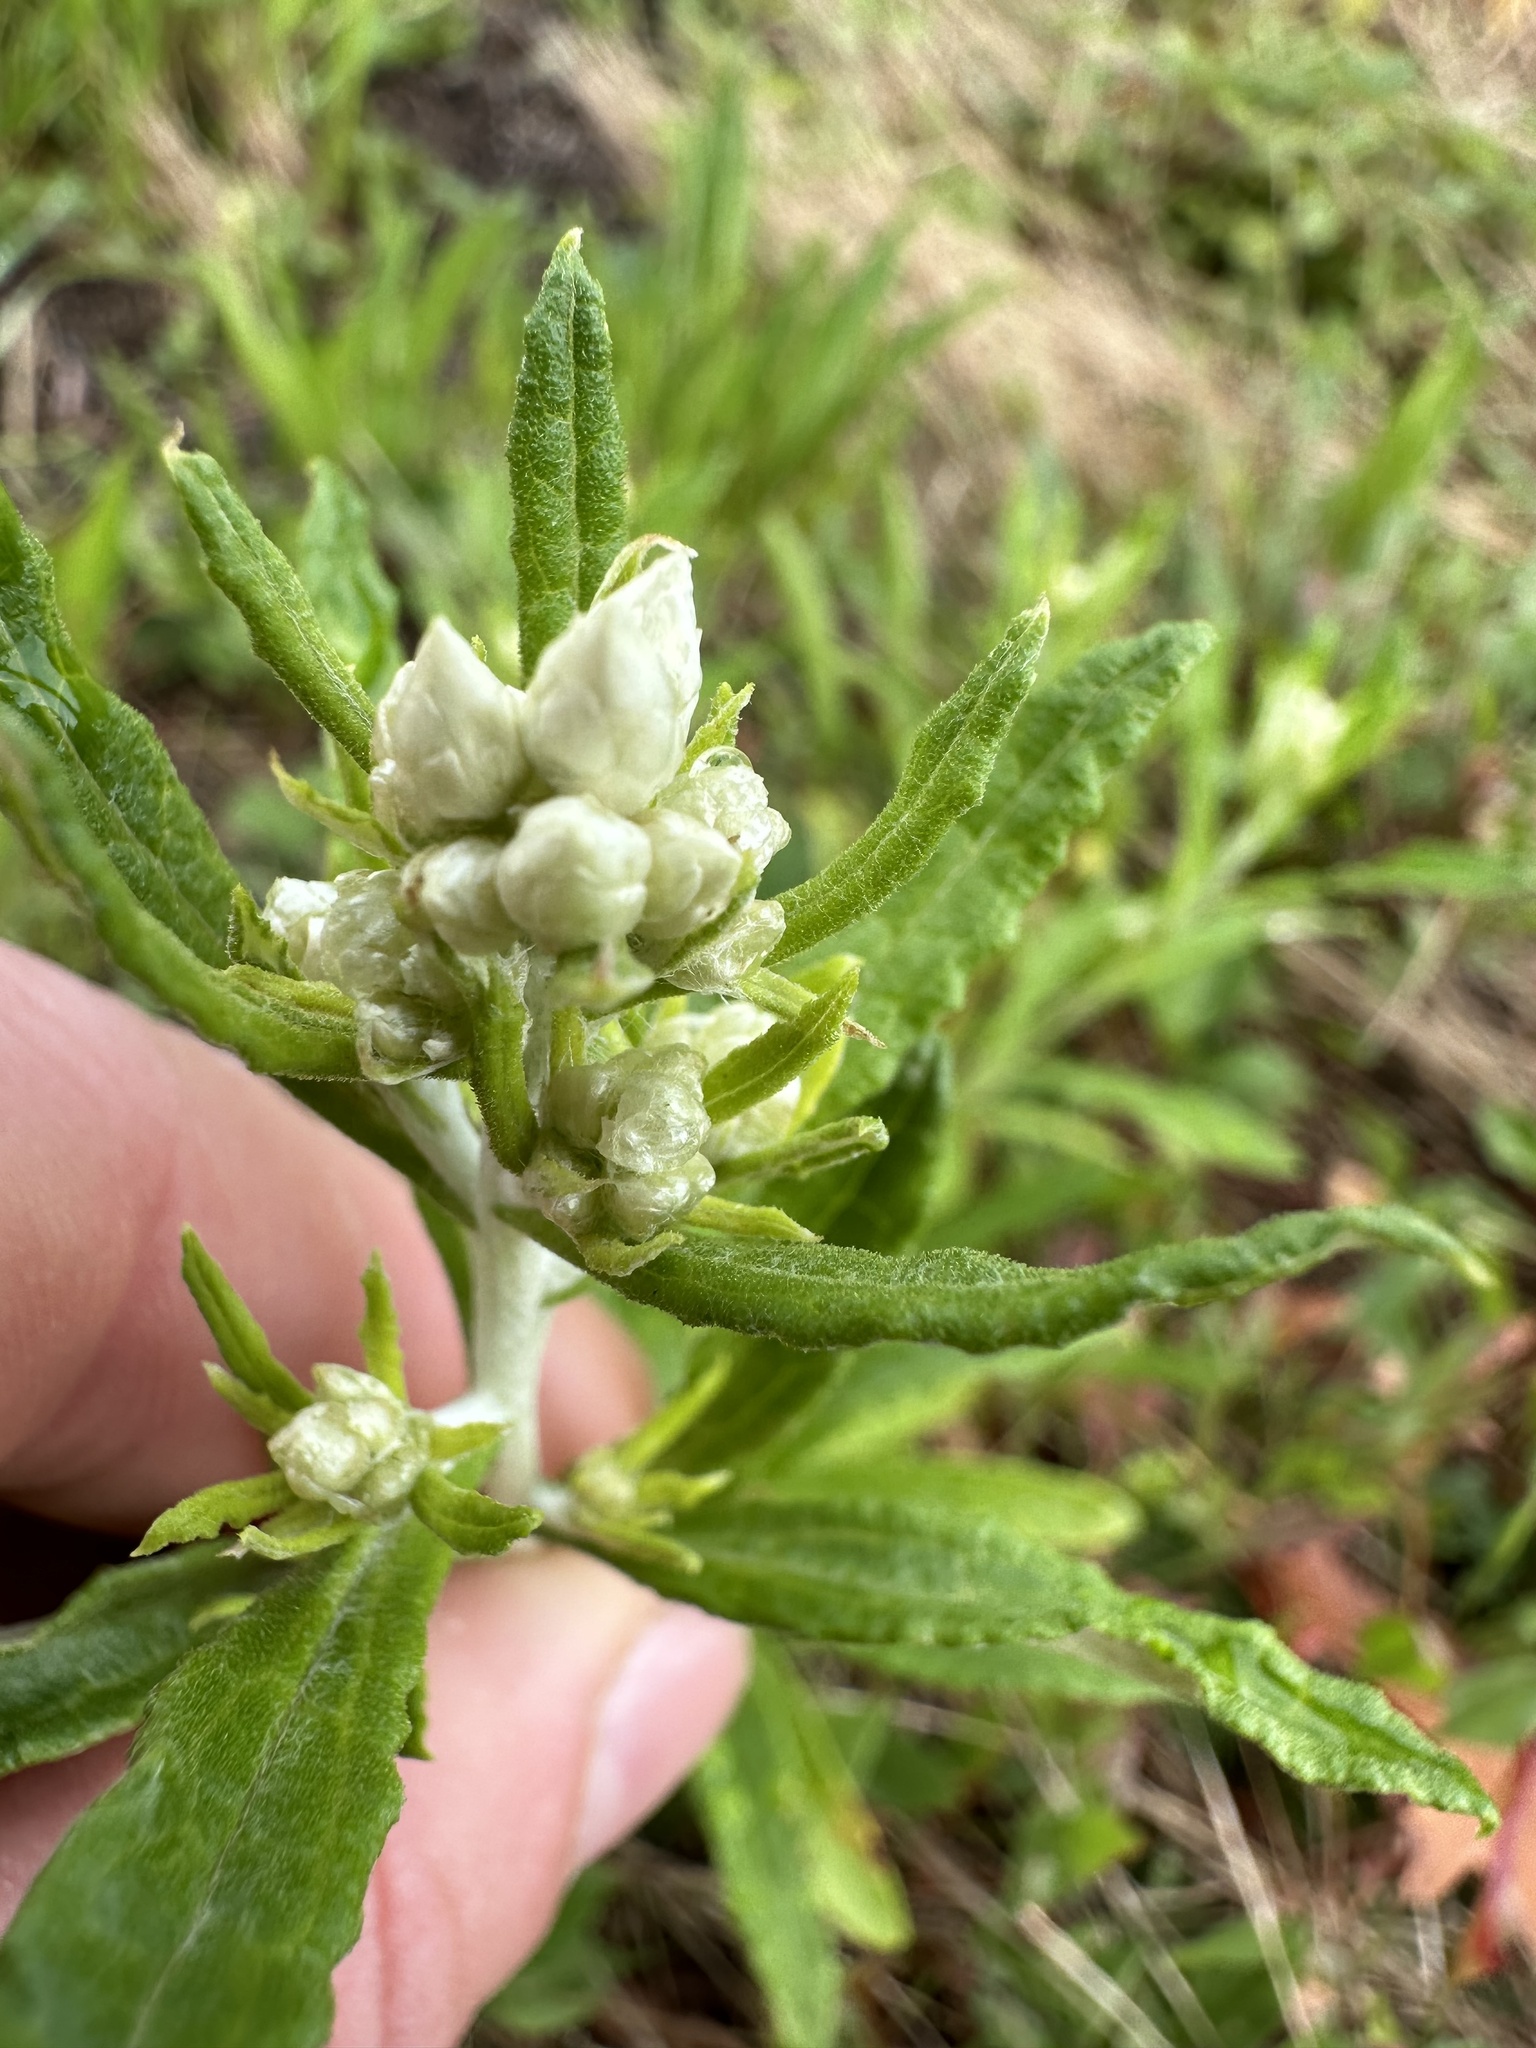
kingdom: Plantae
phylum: Tracheophyta
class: Magnoliopsida
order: Asterales
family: Asteraceae
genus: Pseudognaphalium
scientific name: Pseudognaphalium obtusifolium
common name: Eastern rabbit-tobacco
